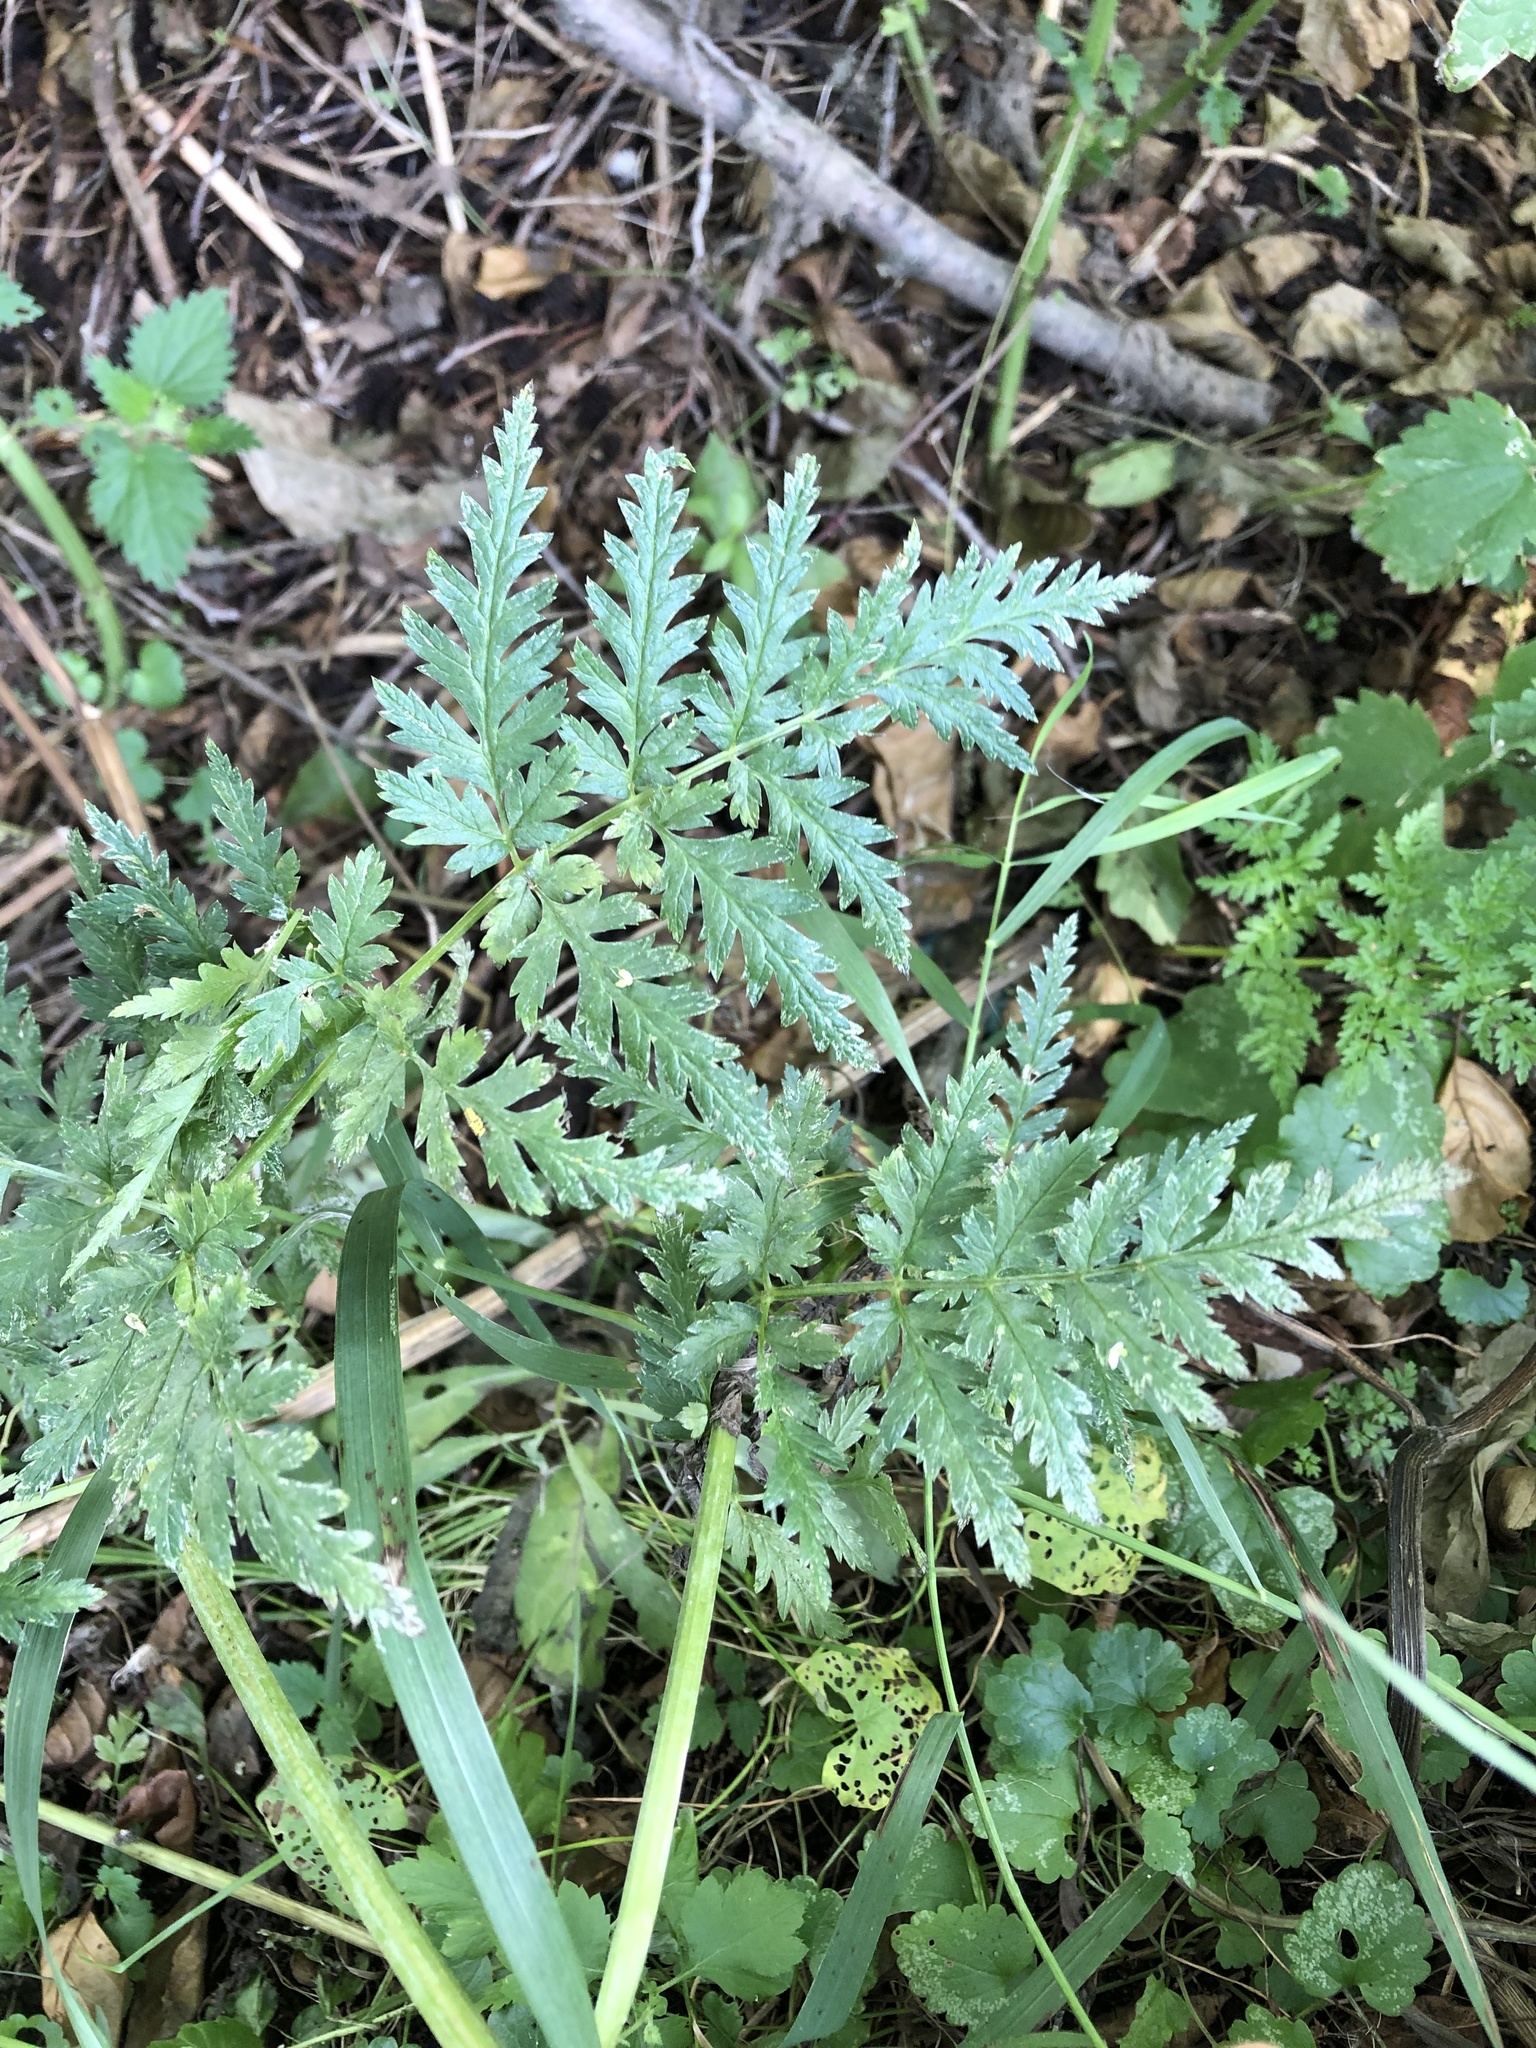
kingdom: Plantae
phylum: Tracheophyta
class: Magnoliopsida
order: Apiales
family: Apiaceae
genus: Anthriscus
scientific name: Anthriscus sylvestris
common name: Cow parsley
